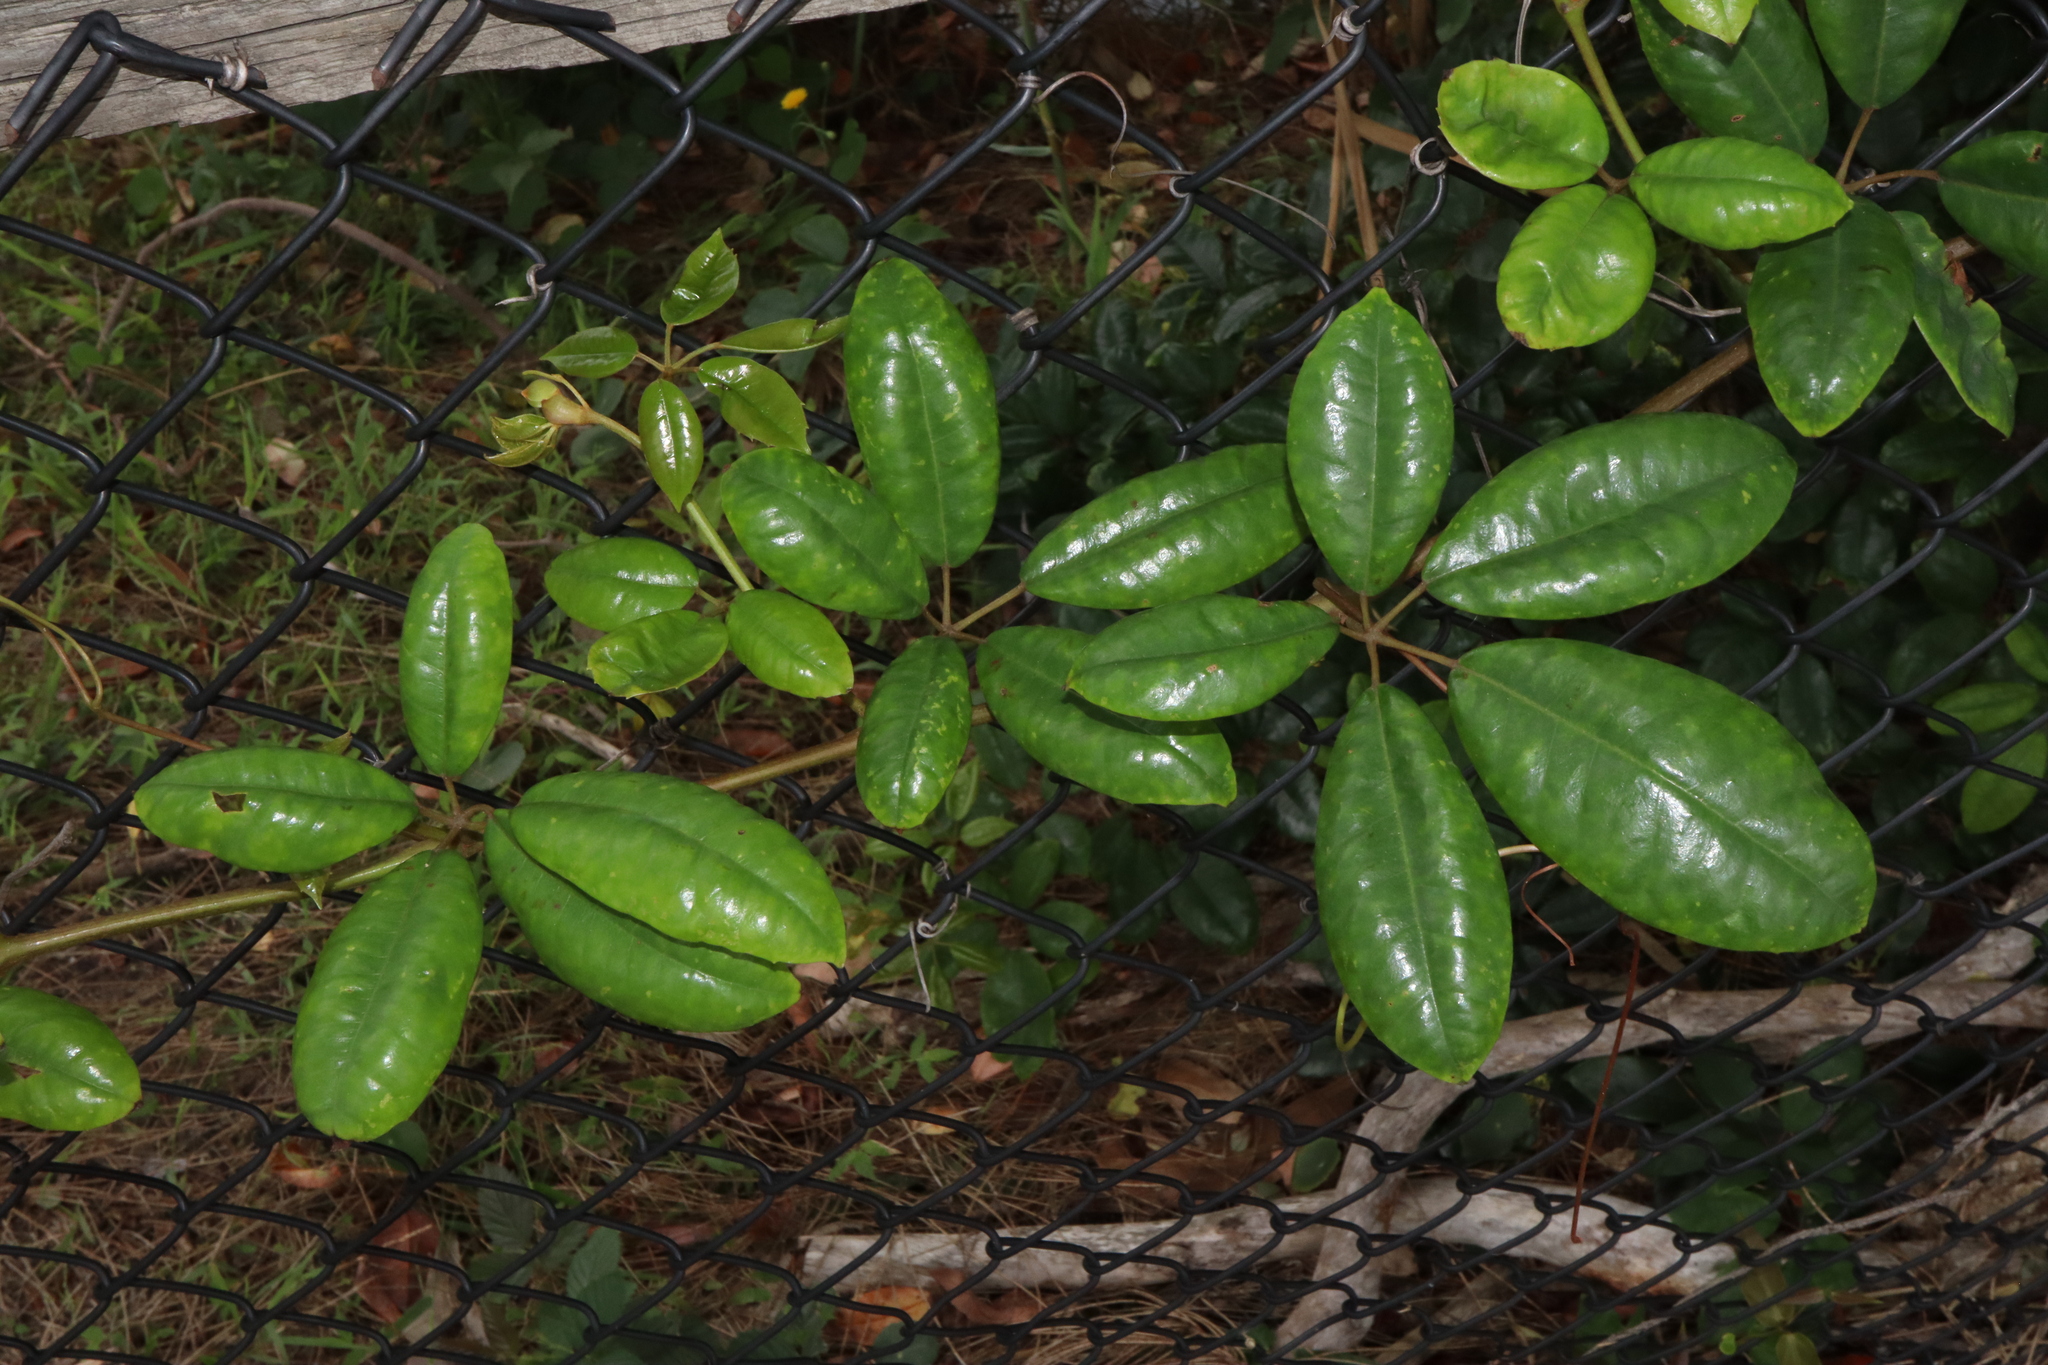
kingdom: Plantae
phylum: Tracheophyta
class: Magnoliopsida
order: Vitales
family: Vitaceae
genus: Nothocissus
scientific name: Nothocissus hypoglauca
